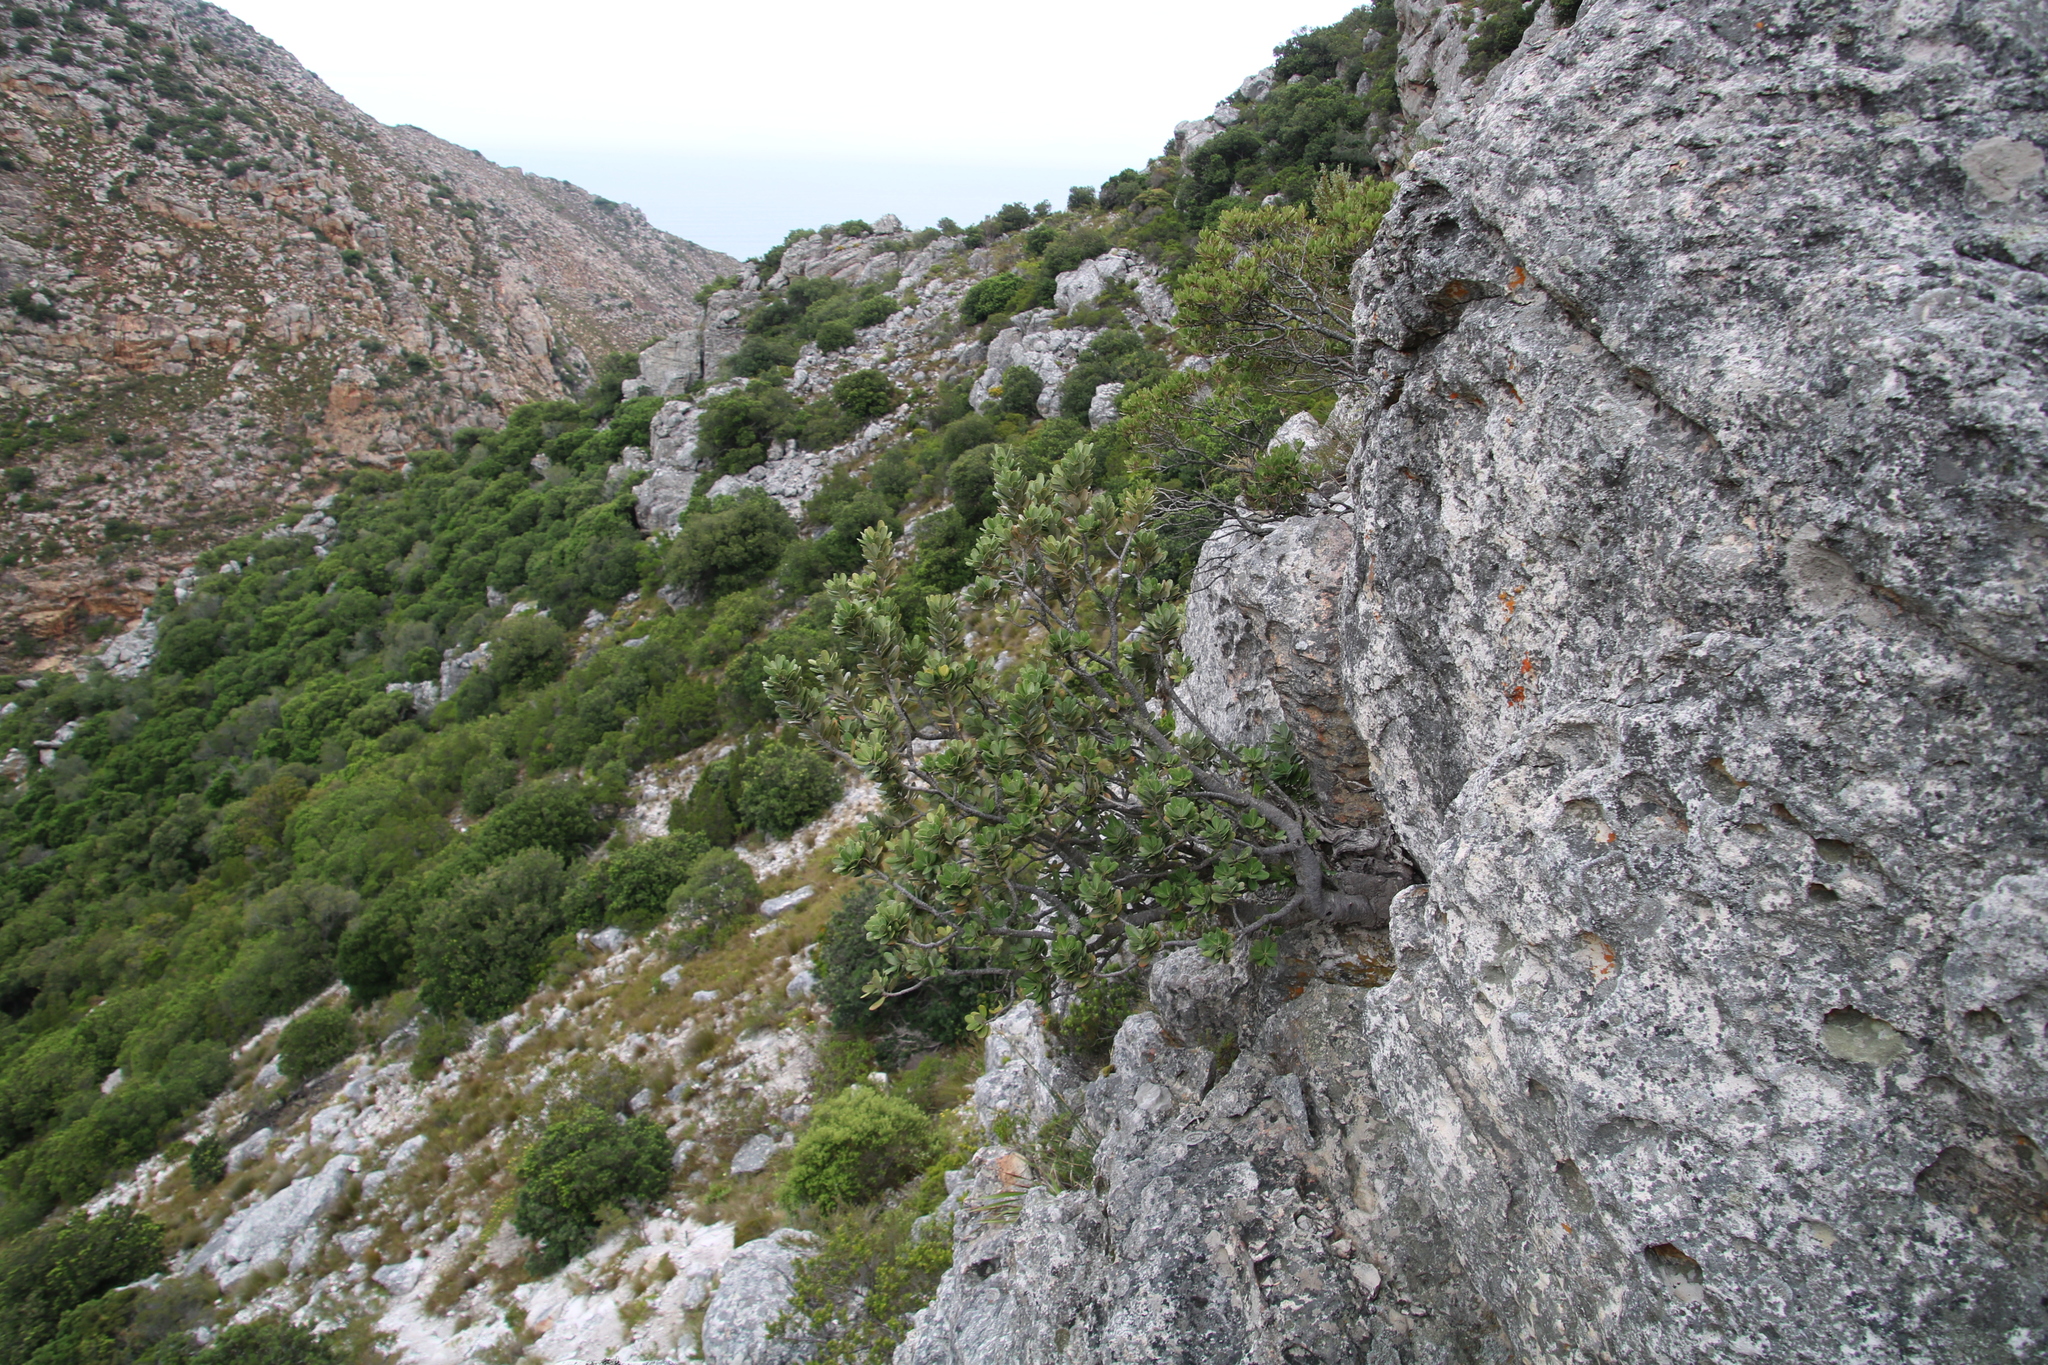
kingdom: Plantae
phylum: Tracheophyta
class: Magnoliopsida
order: Sapindales
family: Anacardiaceae
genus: Heeria
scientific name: Heeria argentea
